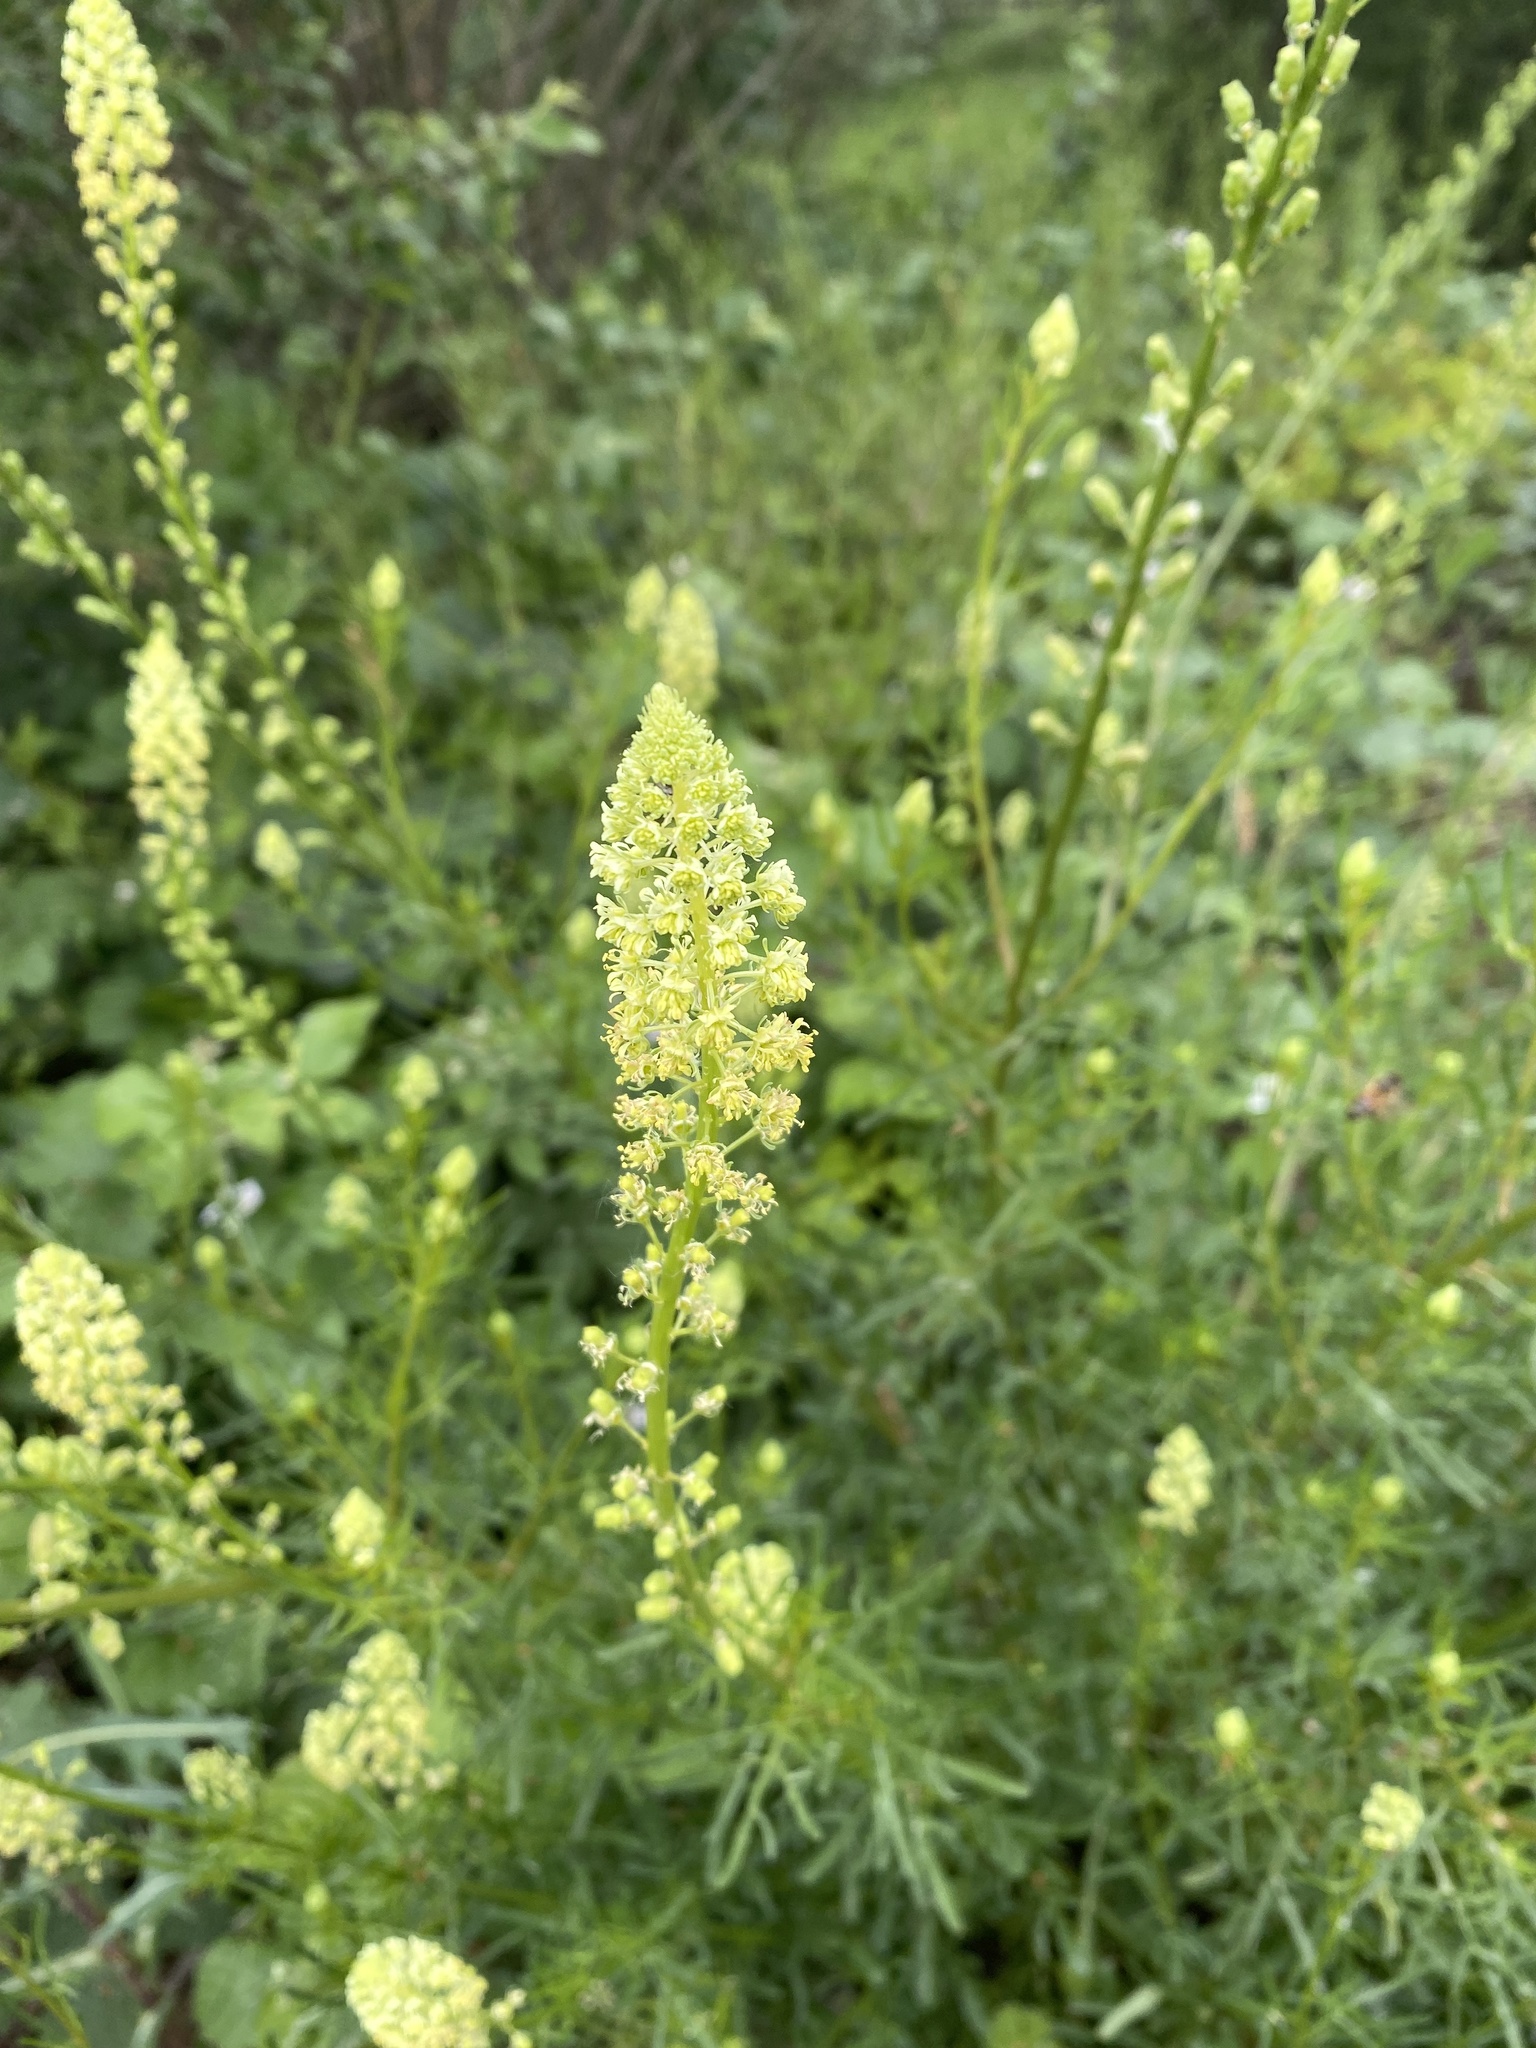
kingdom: Plantae
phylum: Tracheophyta
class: Magnoliopsida
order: Brassicales
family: Resedaceae
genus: Reseda
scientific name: Reseda lutea
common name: Wild mignonette
